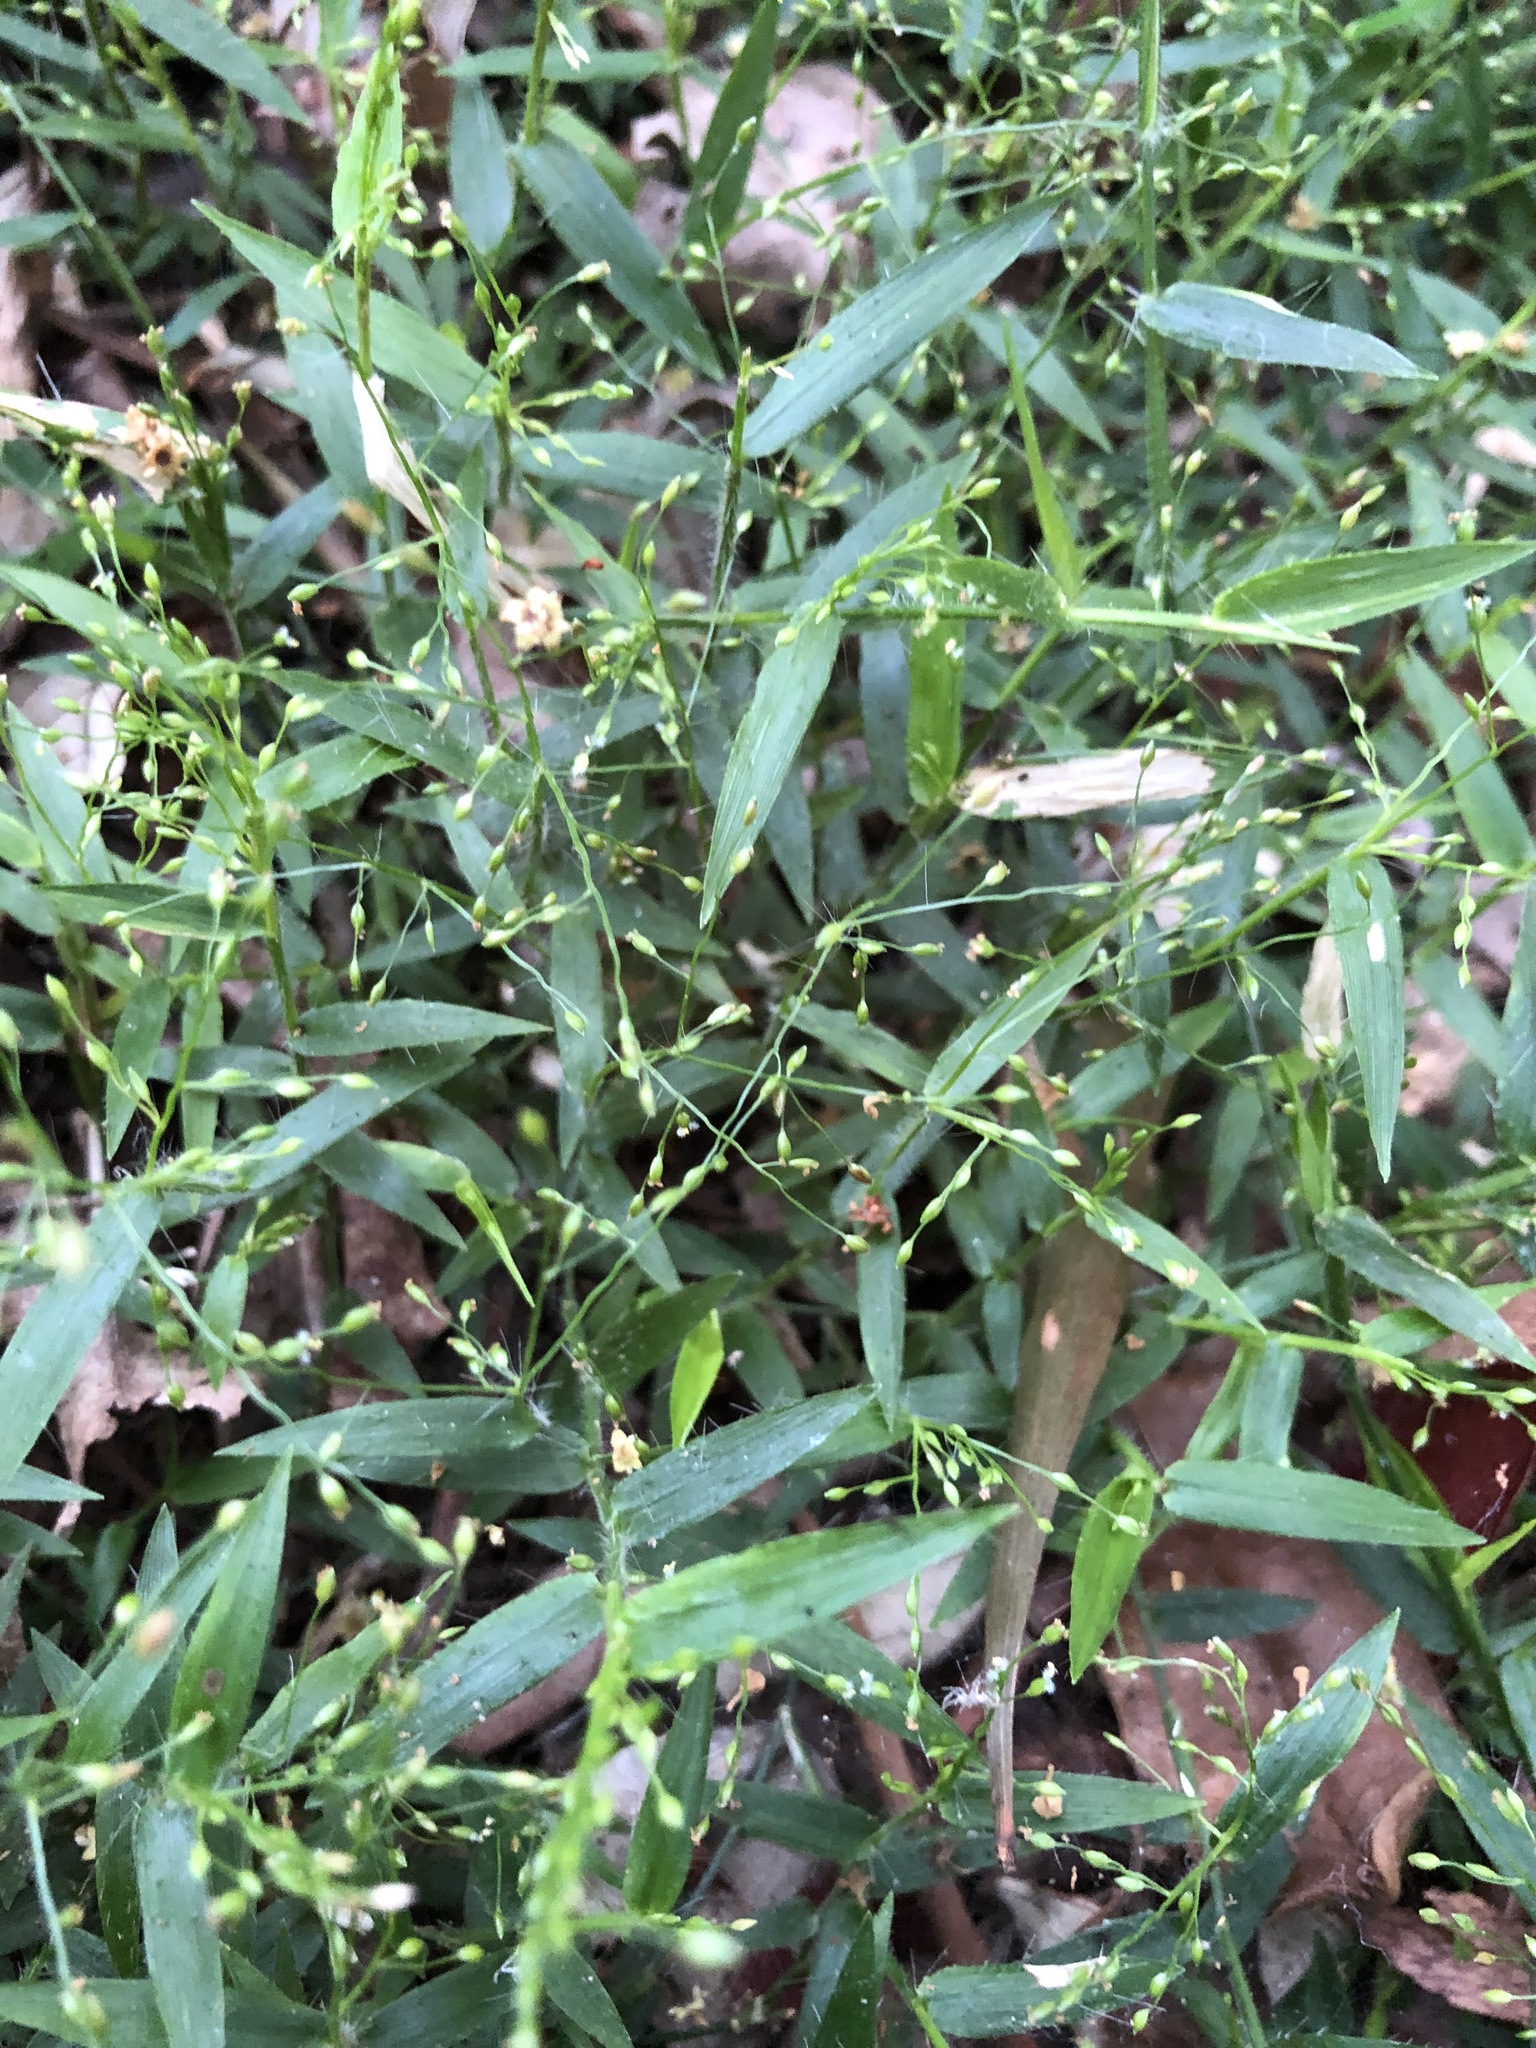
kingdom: Plantae
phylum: Tracheophyta
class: Liliopsida
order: Poales
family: Poaceae
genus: Panicum
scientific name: Panicum pygmaeum
